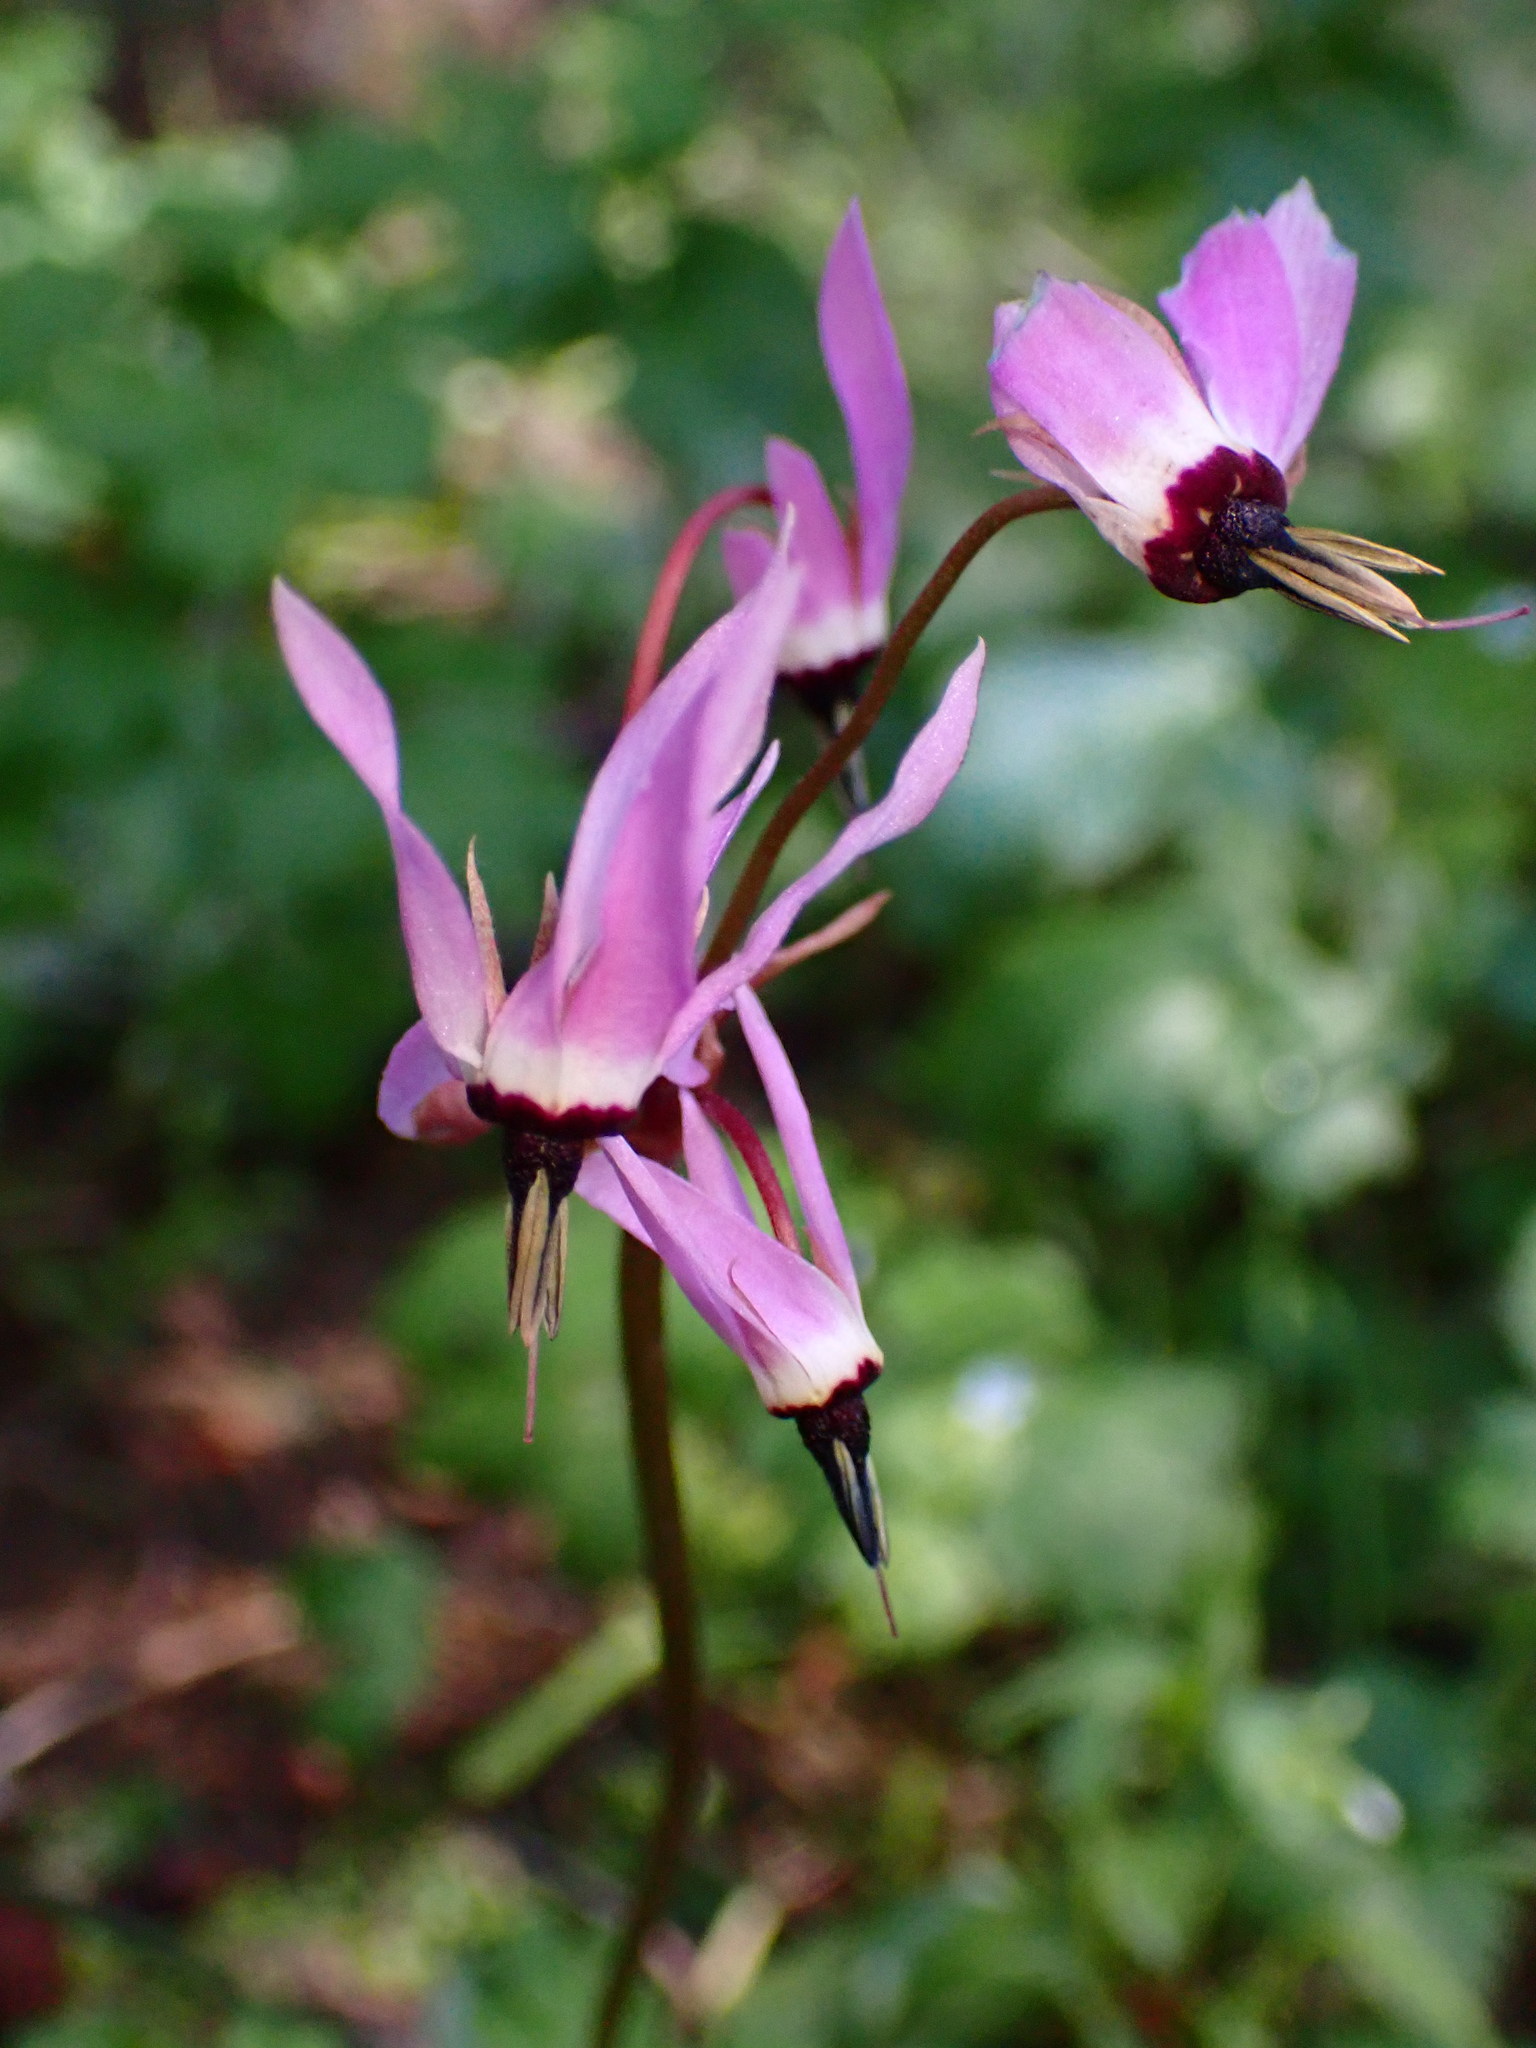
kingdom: Plantae
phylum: Tracheophyta
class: Magnoliopsida
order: Ericales
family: Primulaceae
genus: Dodecatheon
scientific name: Dodecatheon hendersonii
